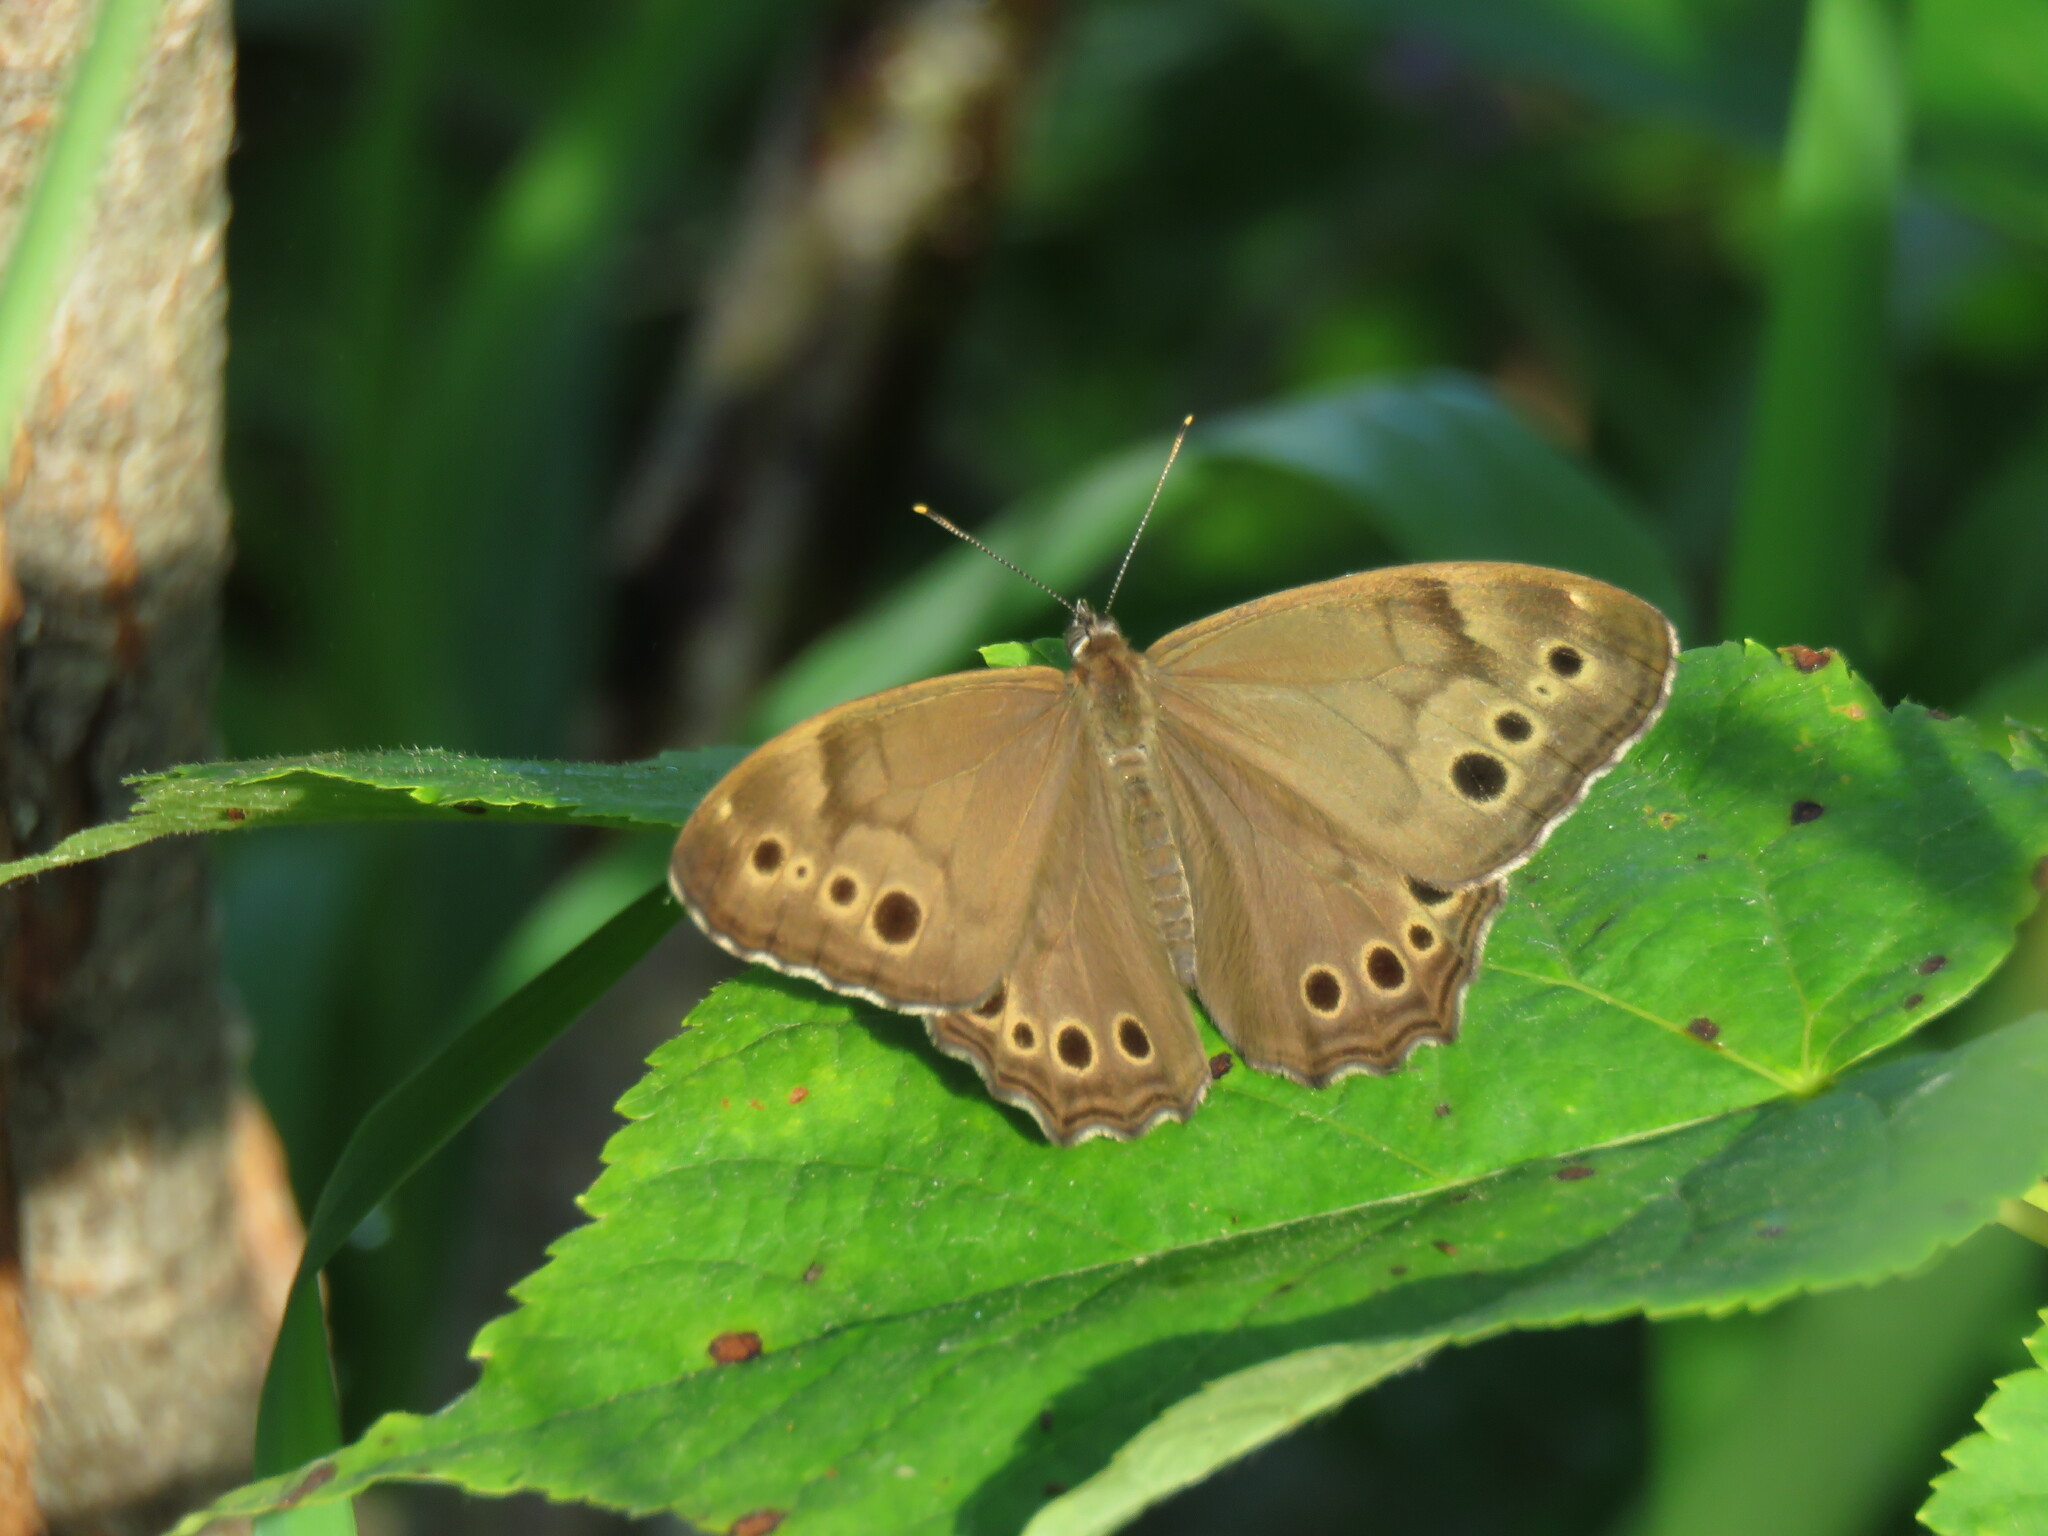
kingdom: Animalia
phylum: Arthropoda
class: Insecta
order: Lepidoptera
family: Nymphalidae
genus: Lethe
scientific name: Lethe anthedon
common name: Northern pearly-eye
